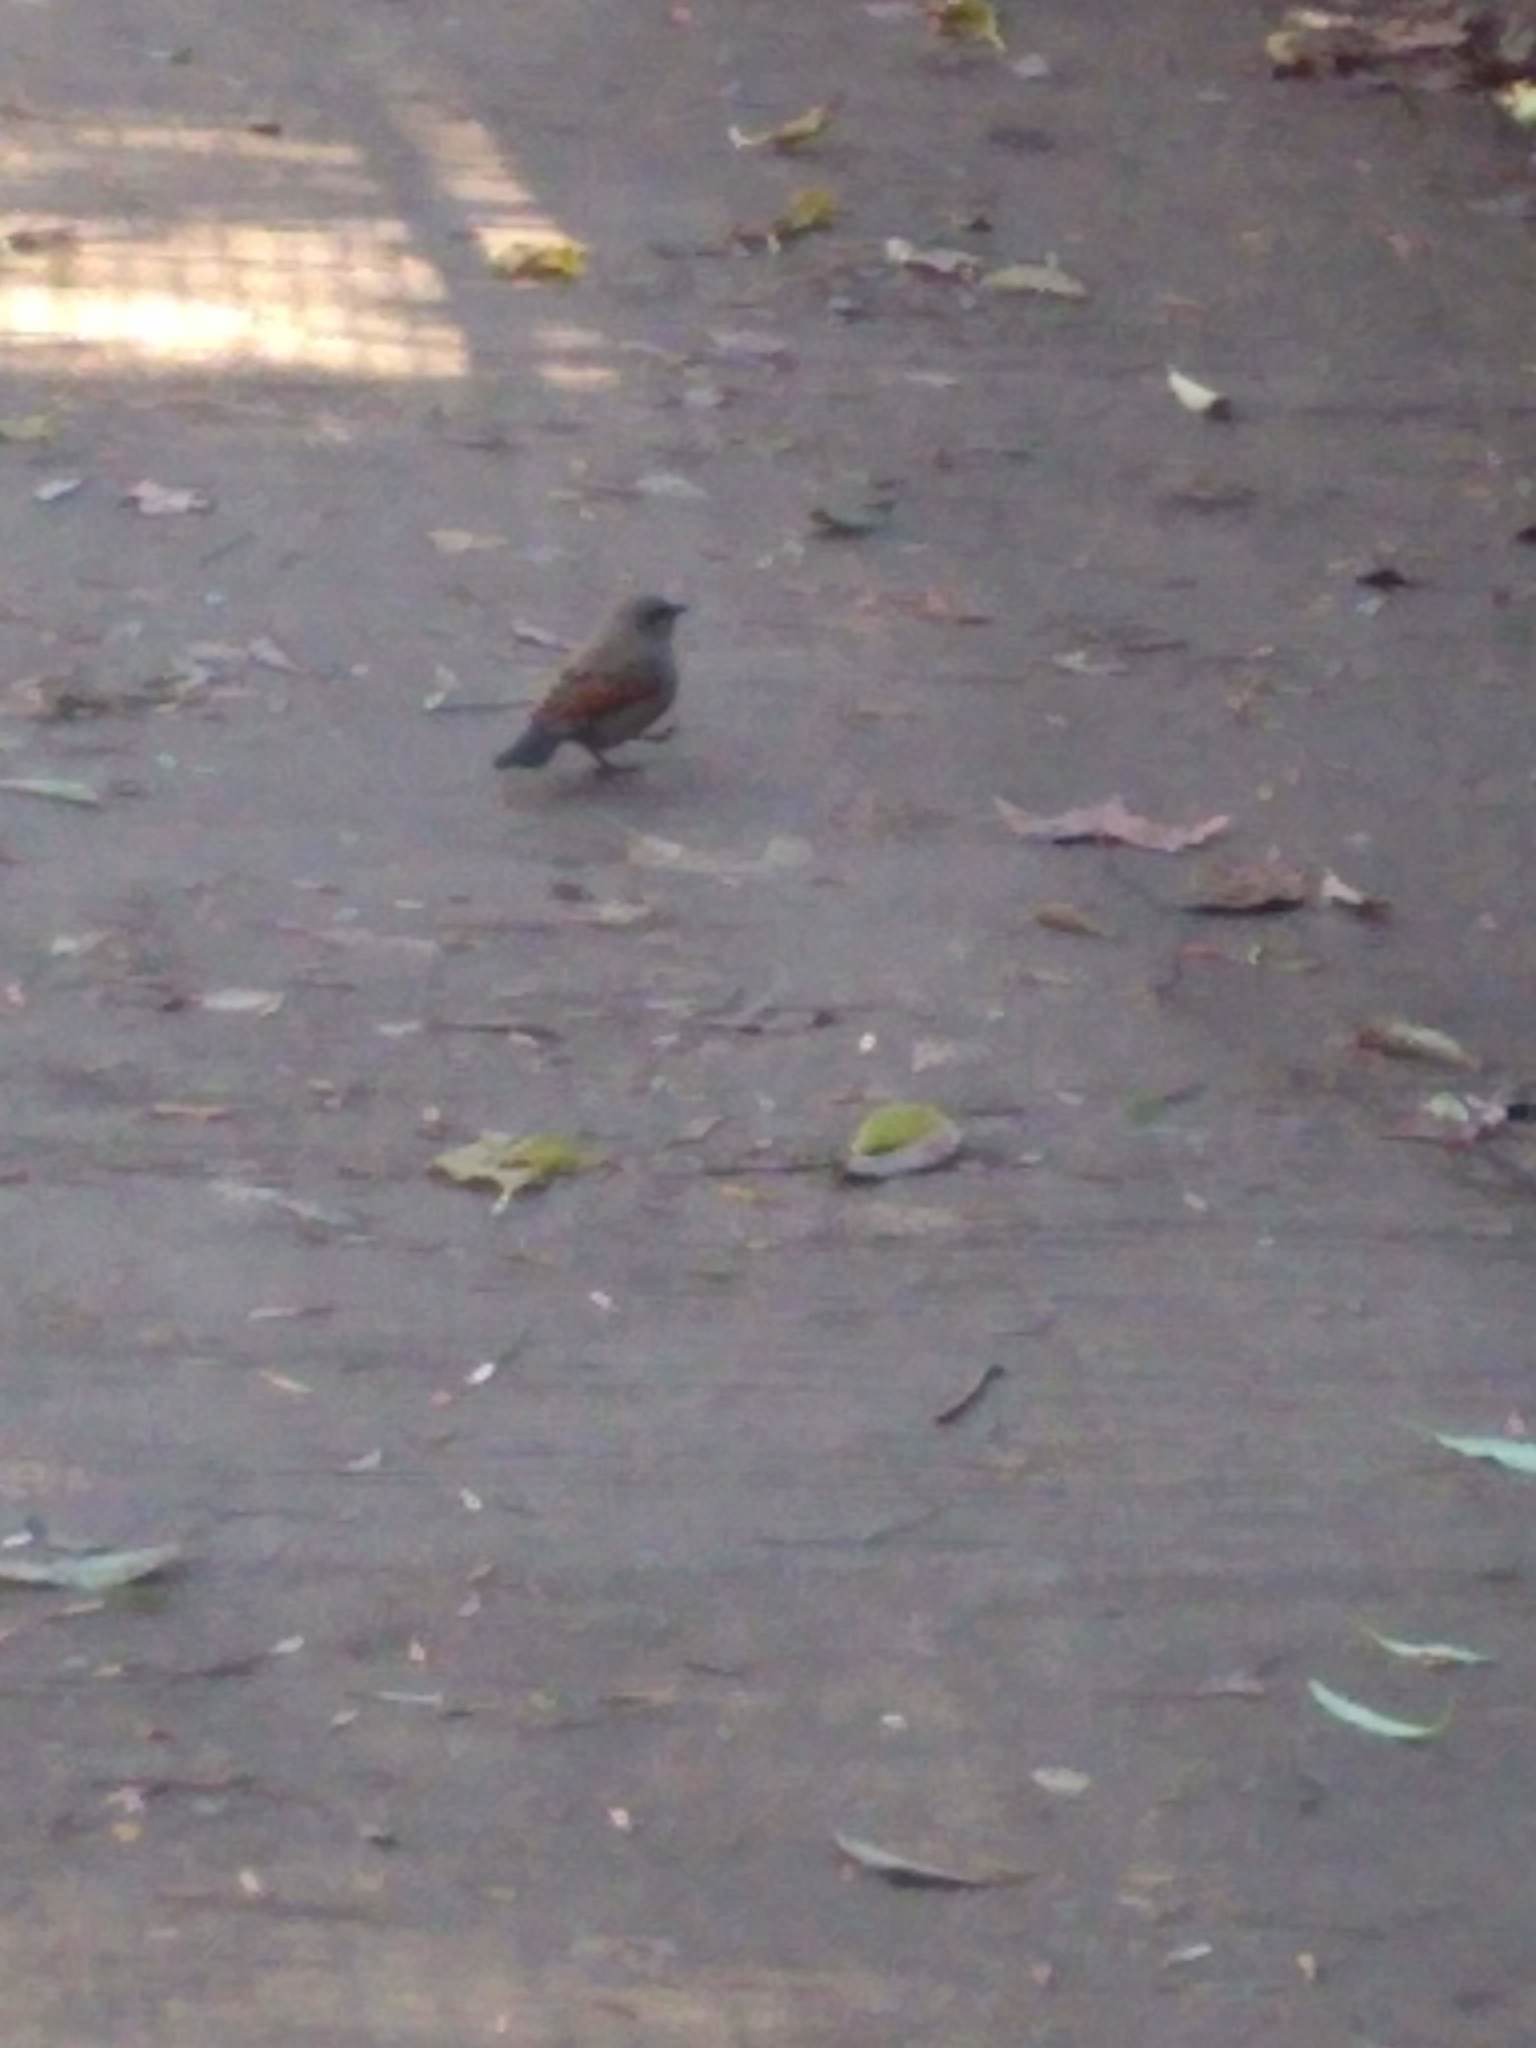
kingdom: Animalia
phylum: Chordata
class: Aves
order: Passeriformes
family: Icteridae
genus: Agelaioides
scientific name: Agelaioides badius
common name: Baywing
